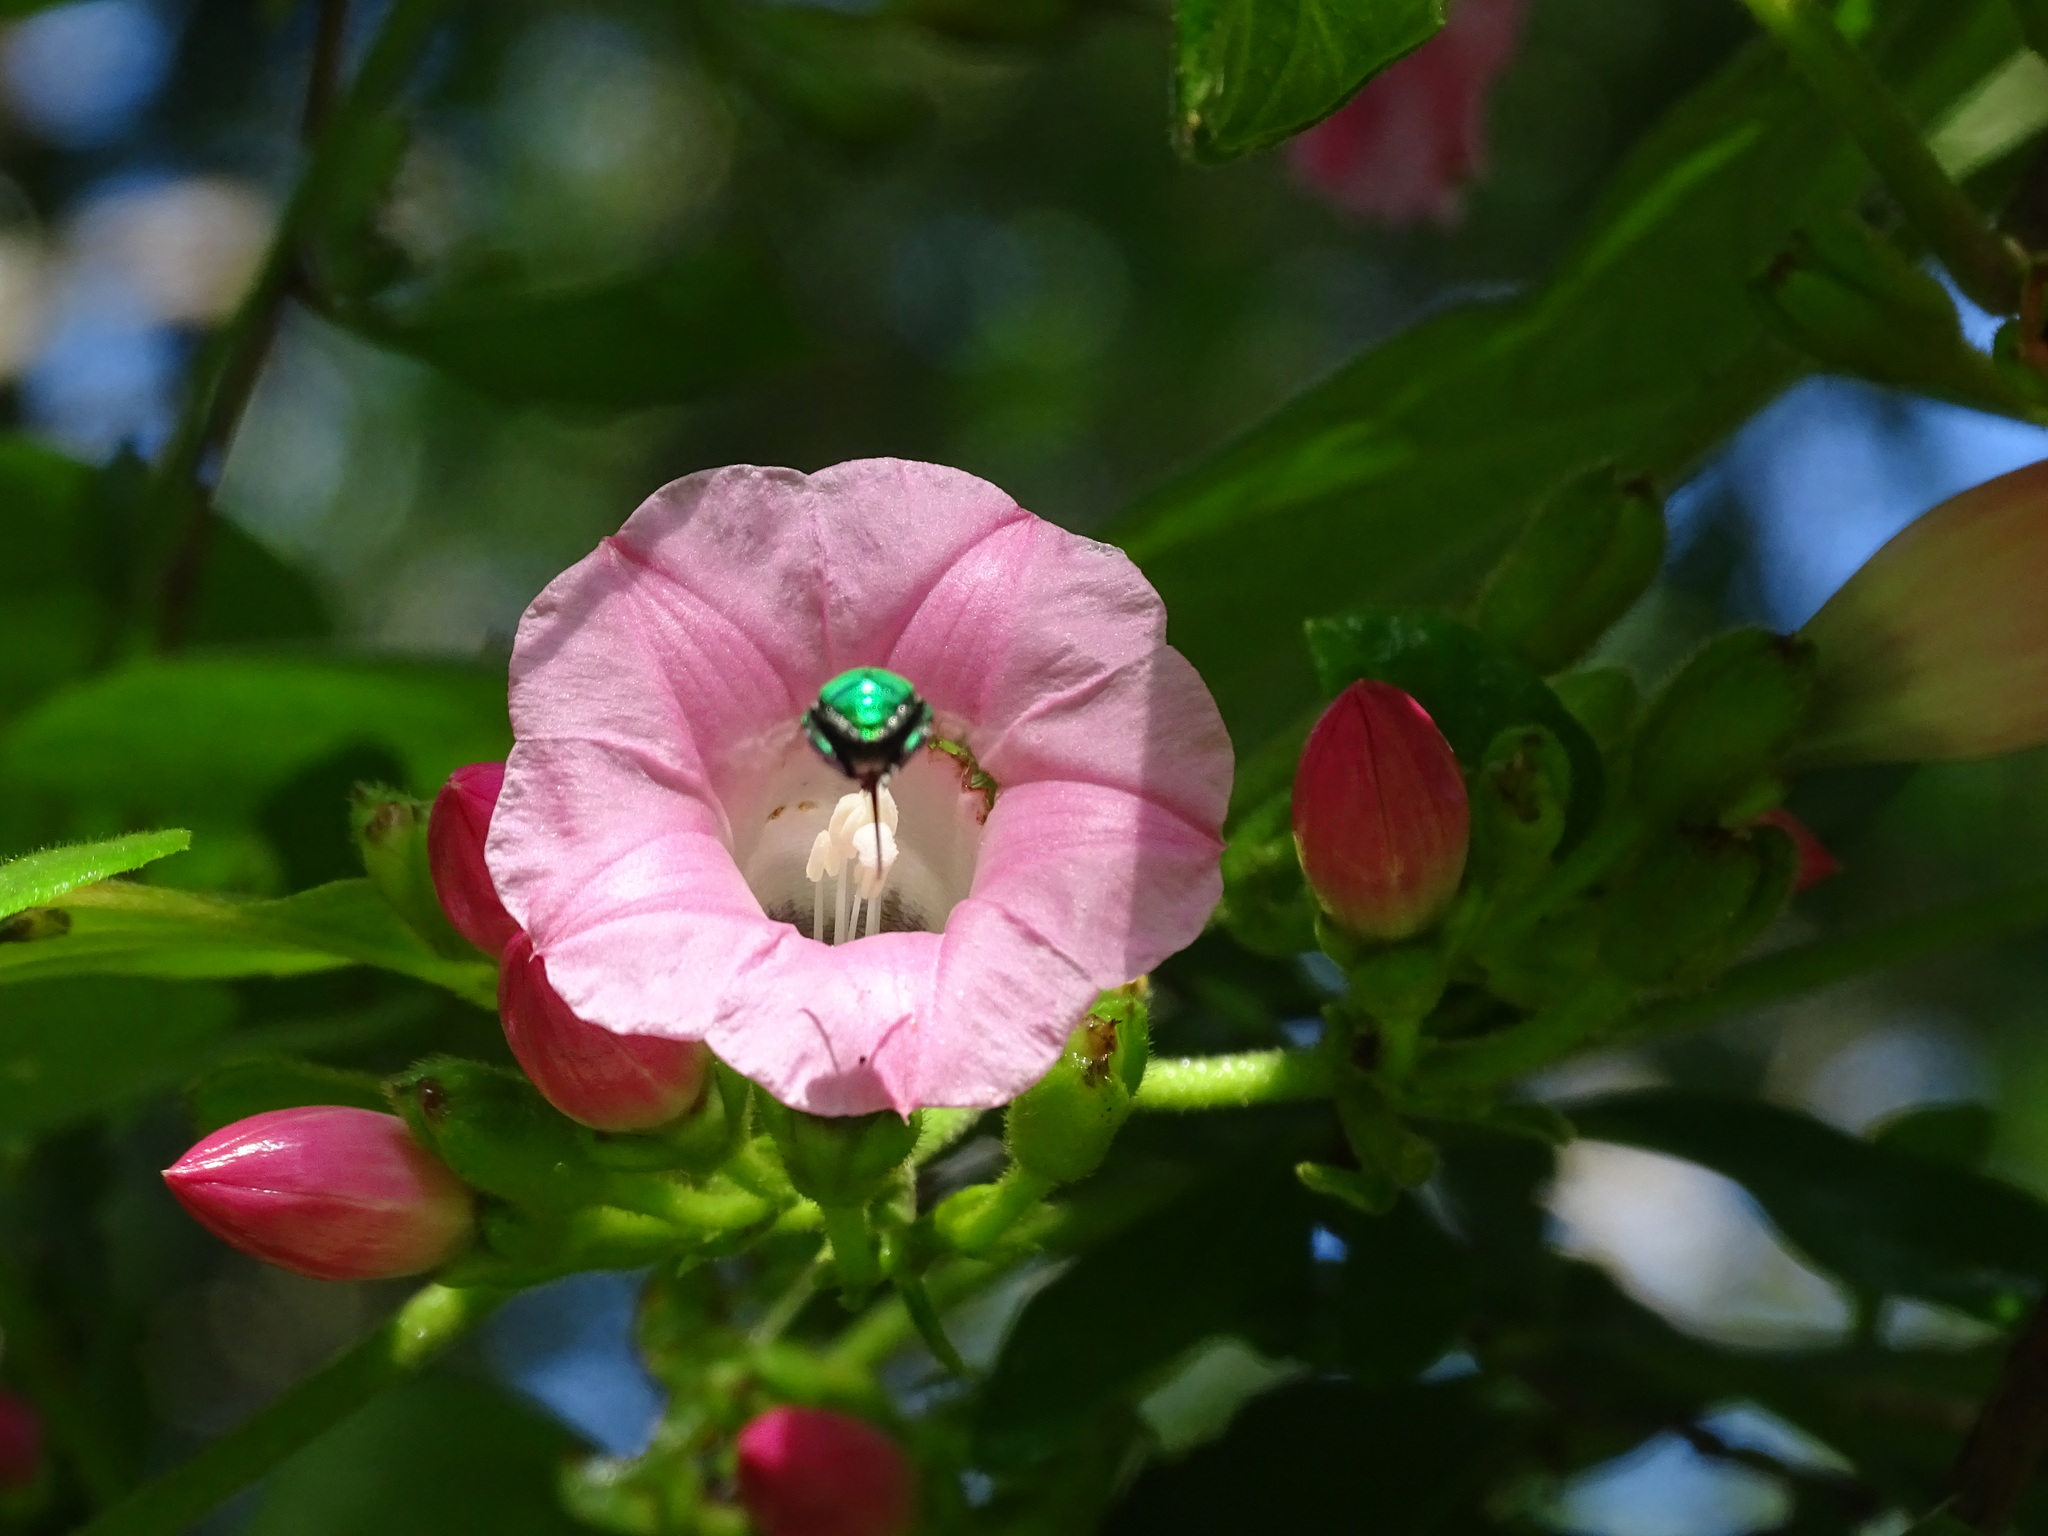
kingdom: Plantae
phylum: Tracheophyta
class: Magnoliopsida
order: Solanales
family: Convolvulaceae
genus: Ipomoea
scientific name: Ipomoea peteri
